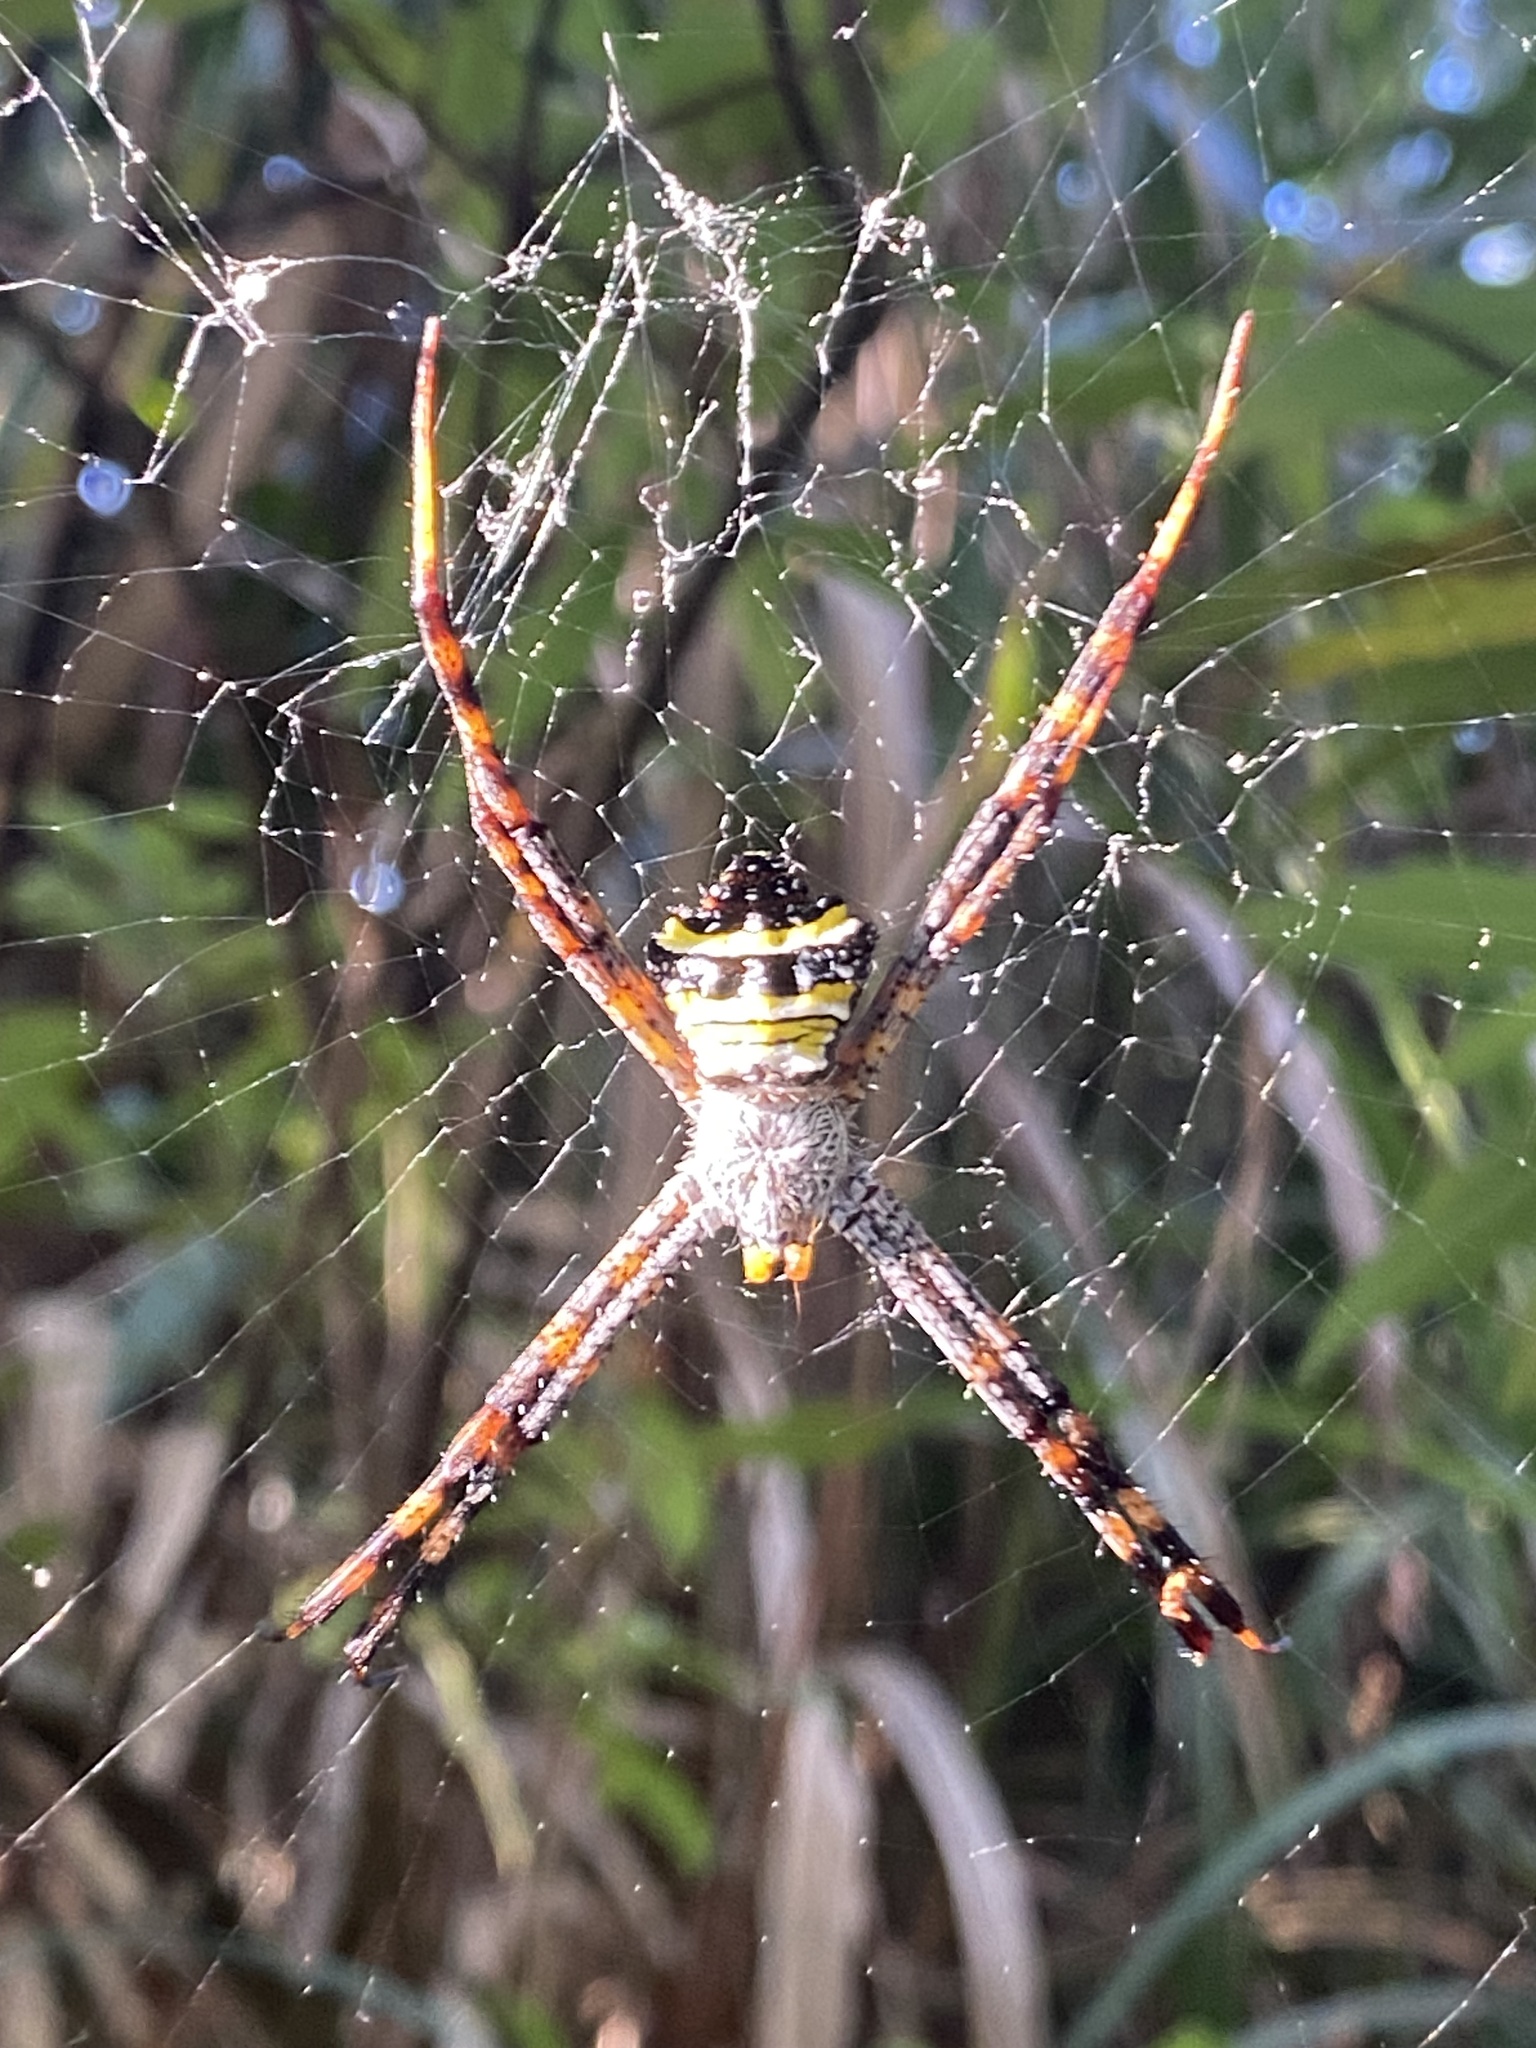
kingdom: Animalia
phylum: Arthropoda
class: Arachnida
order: Araneae
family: Araneidae
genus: Argiope
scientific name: Argiope aetheroides
